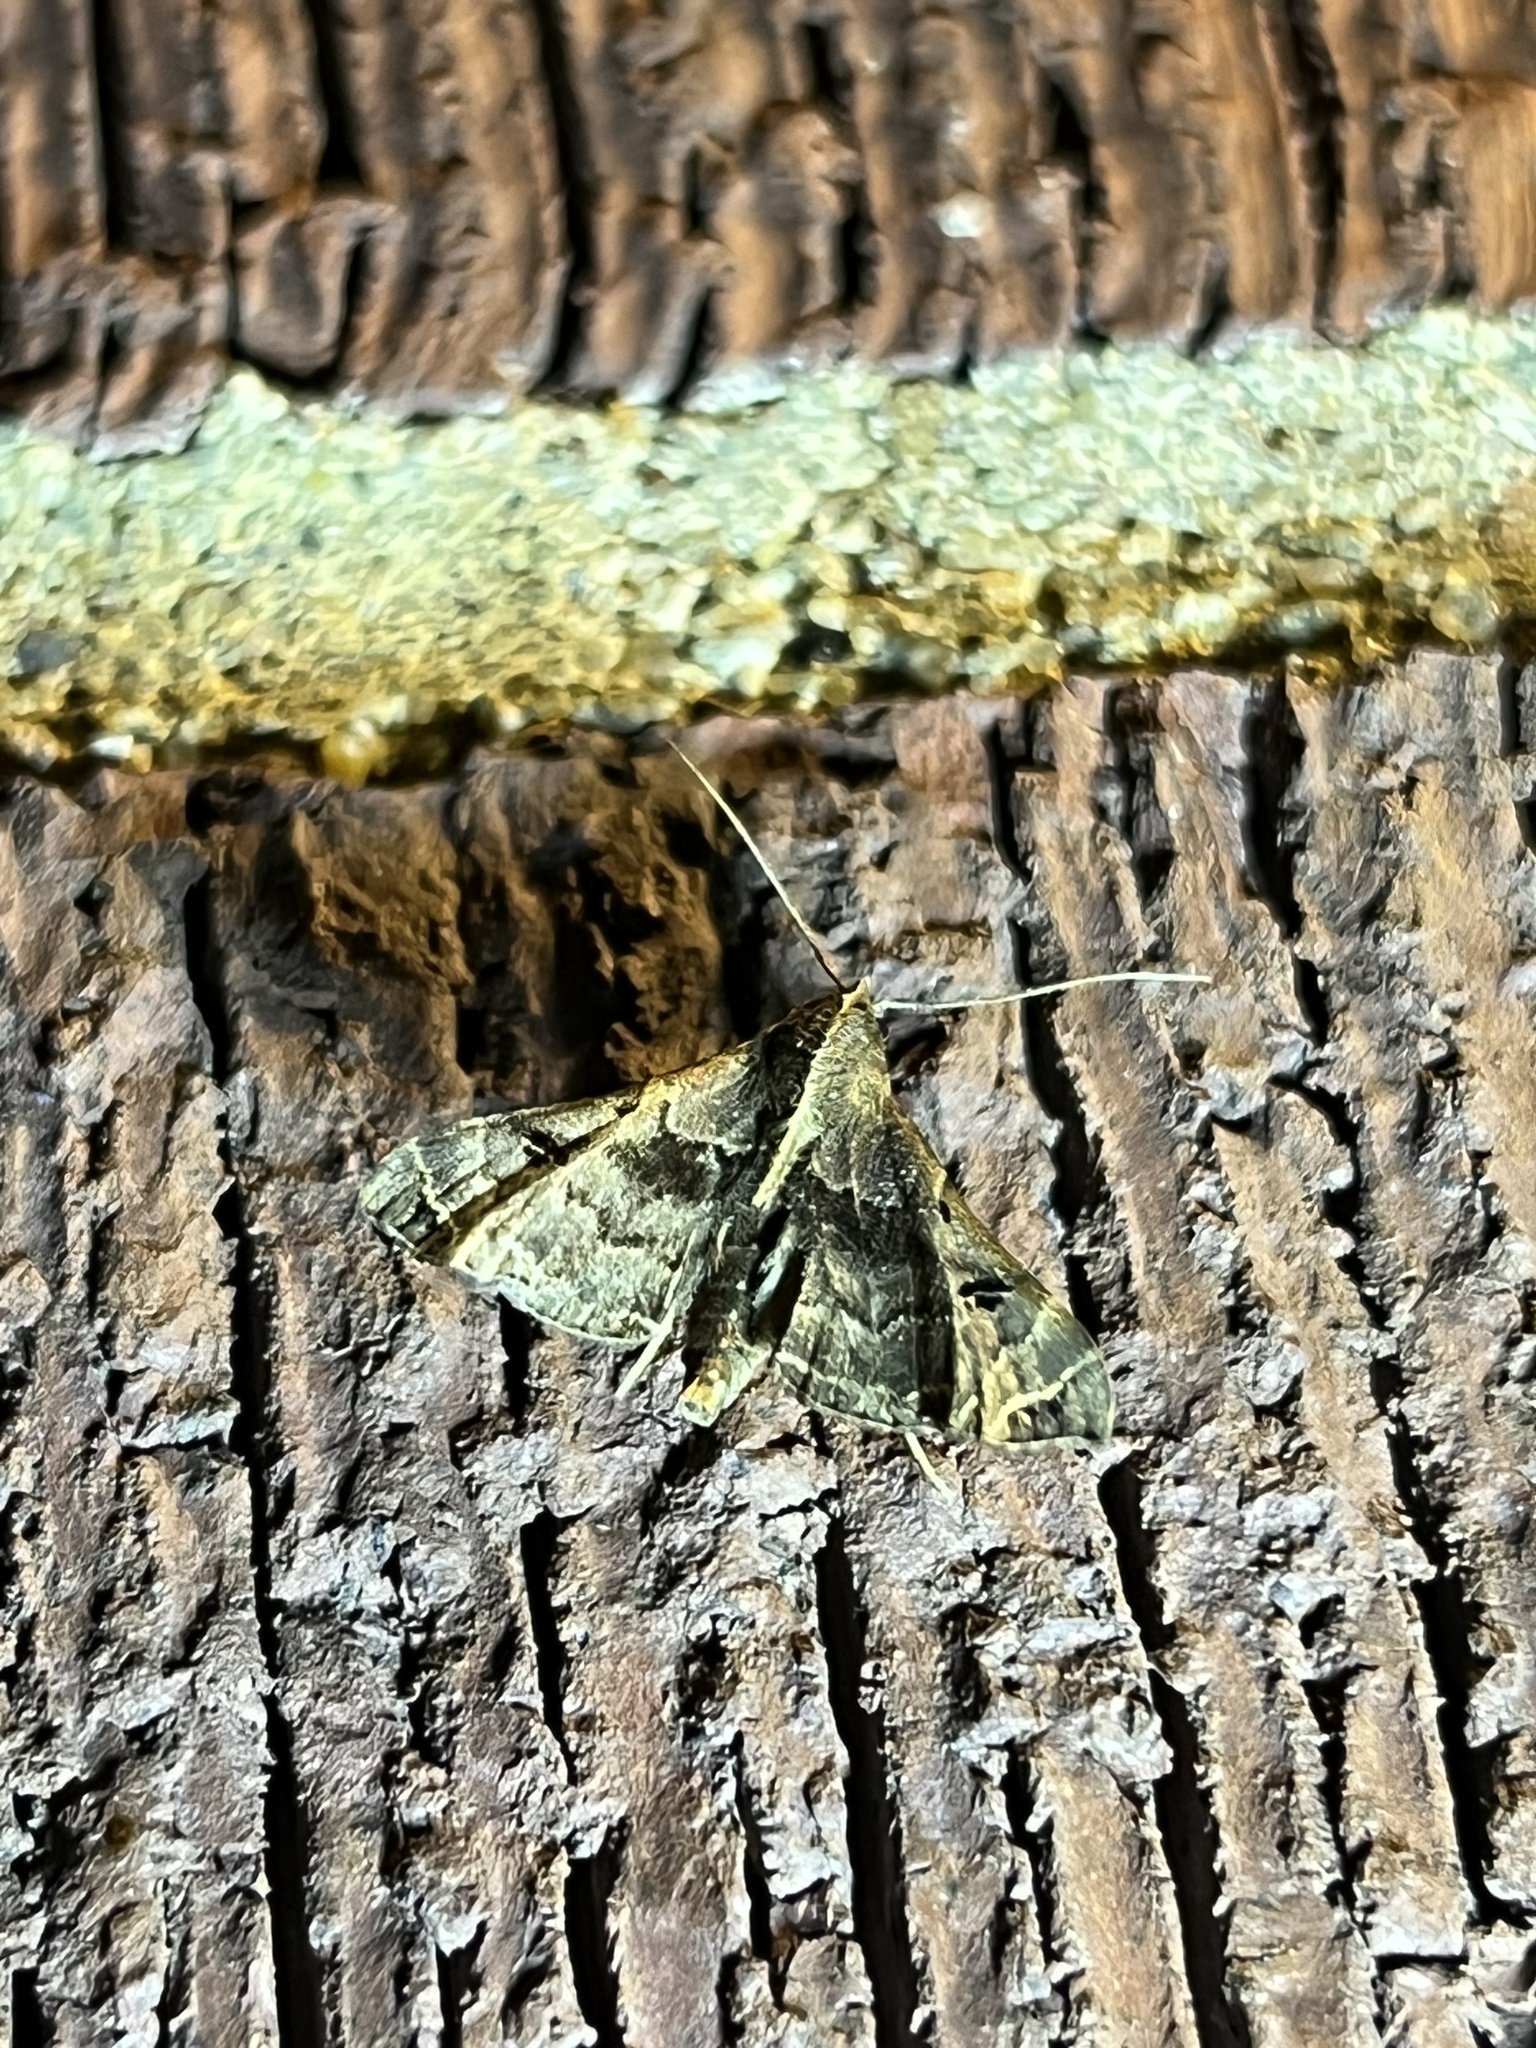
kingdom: Animalia
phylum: Arthropoda
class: Insecta
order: Lepidoptera
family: Erebidae
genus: Palthis
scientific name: Palthis asopialis
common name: Faint-spotted palthis moth
